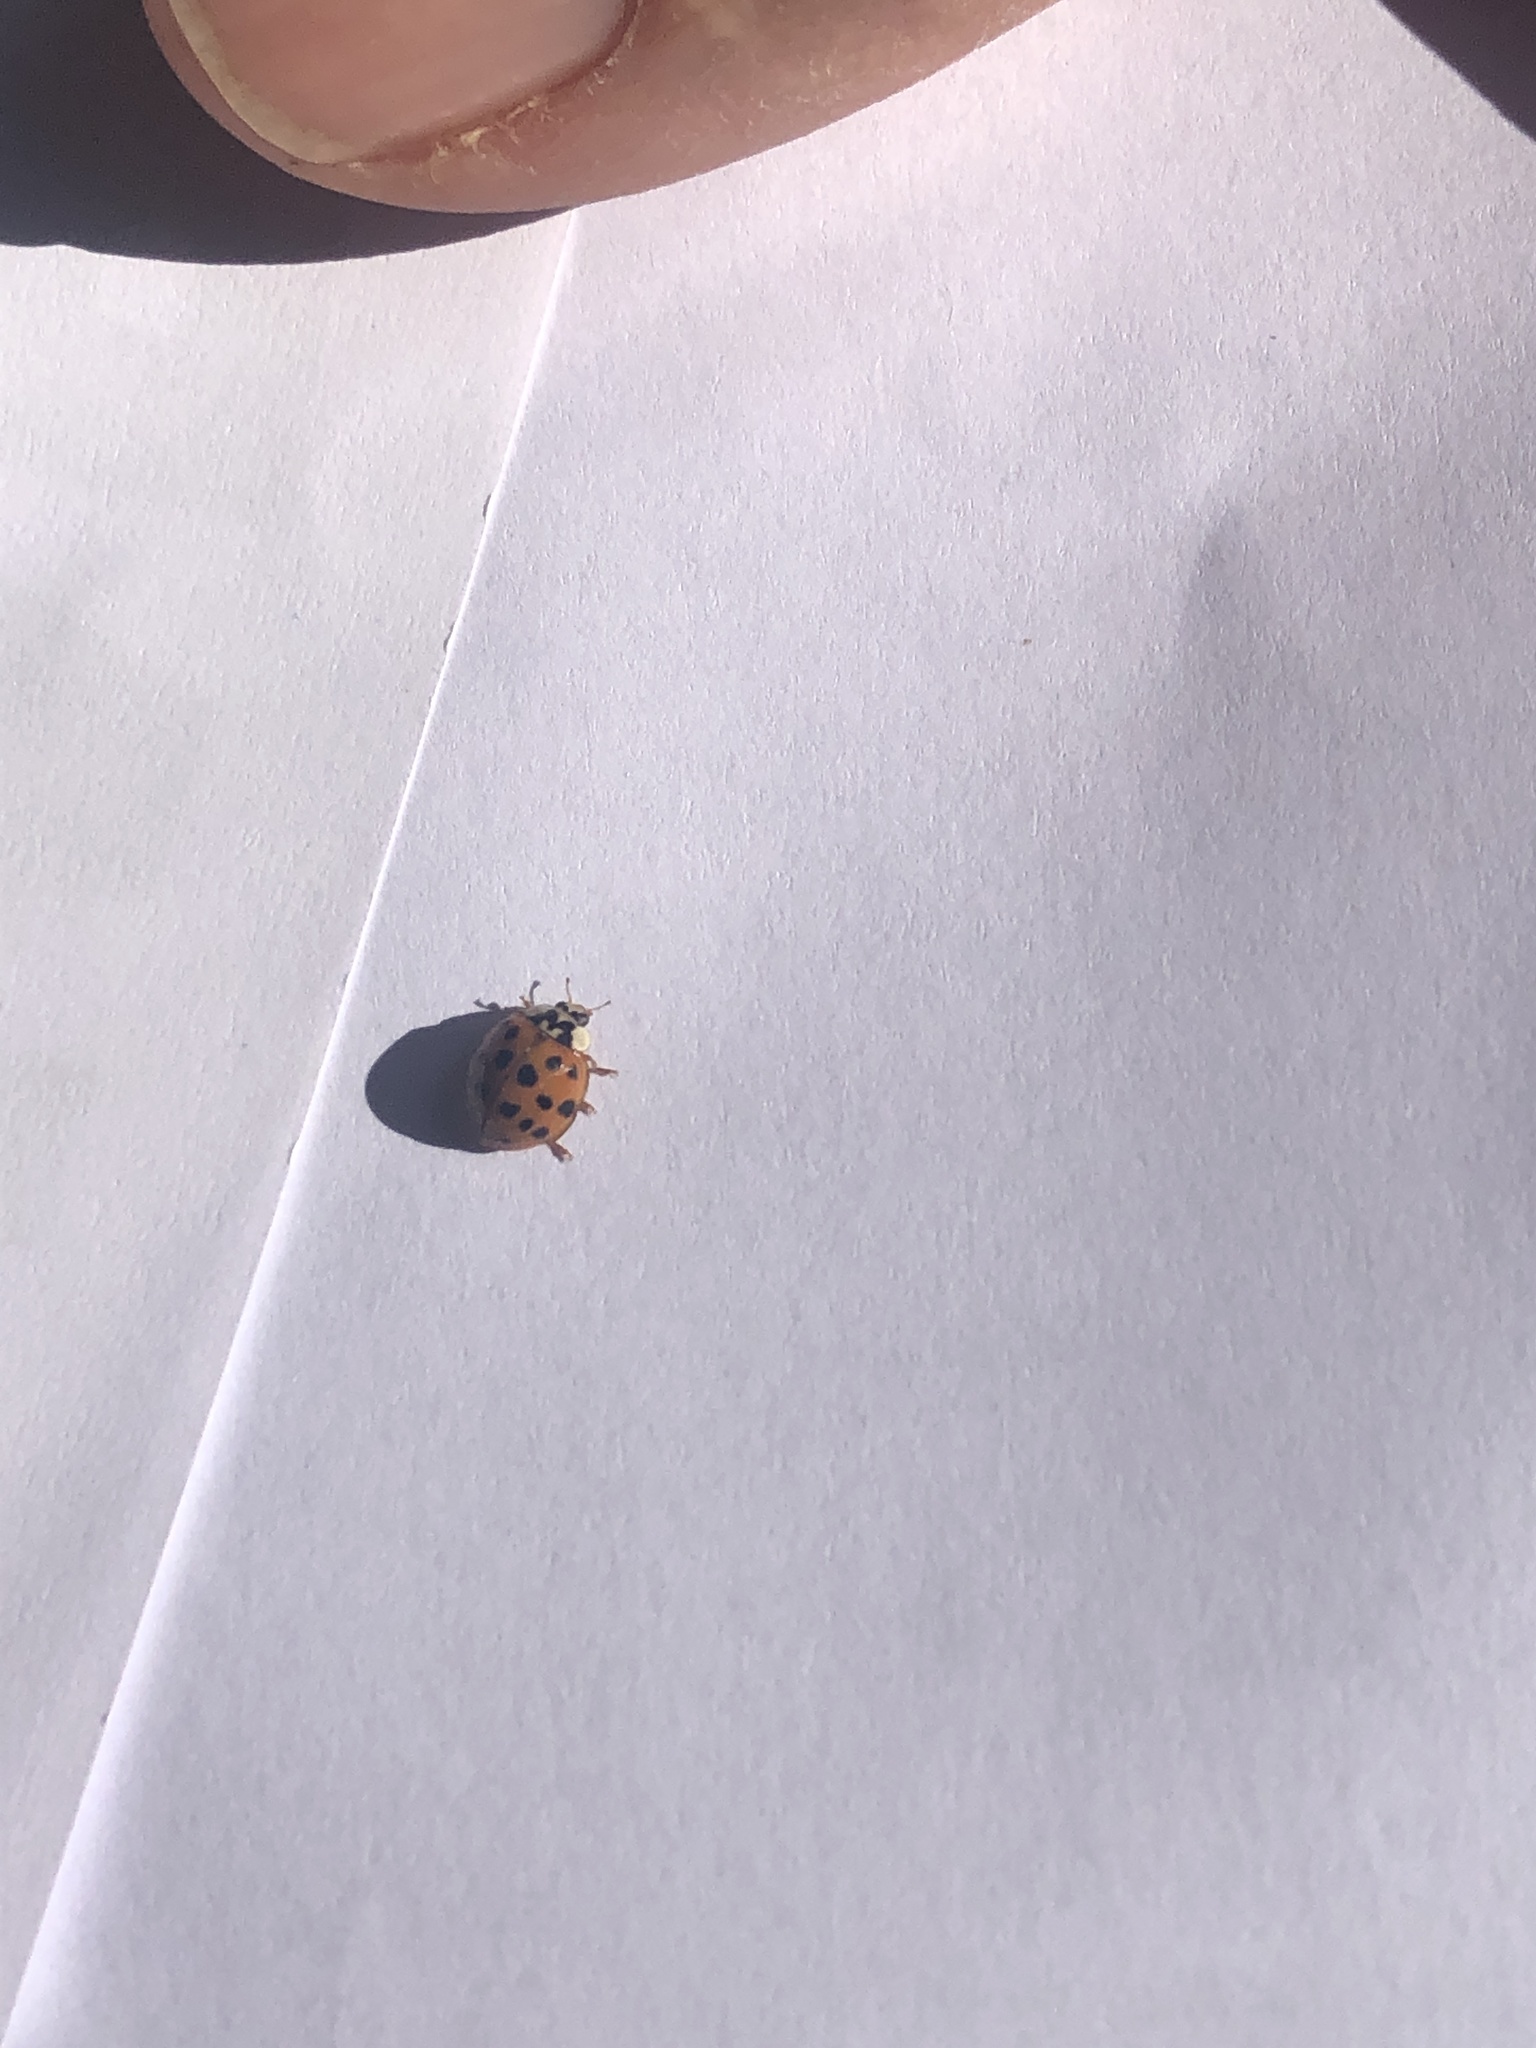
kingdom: Animalia
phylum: Arthropoda
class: Insecta
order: Coleoptera
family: Coccinellidae
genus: Harmonia
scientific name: Harmonia axyridis
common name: Harlequin ladybird
